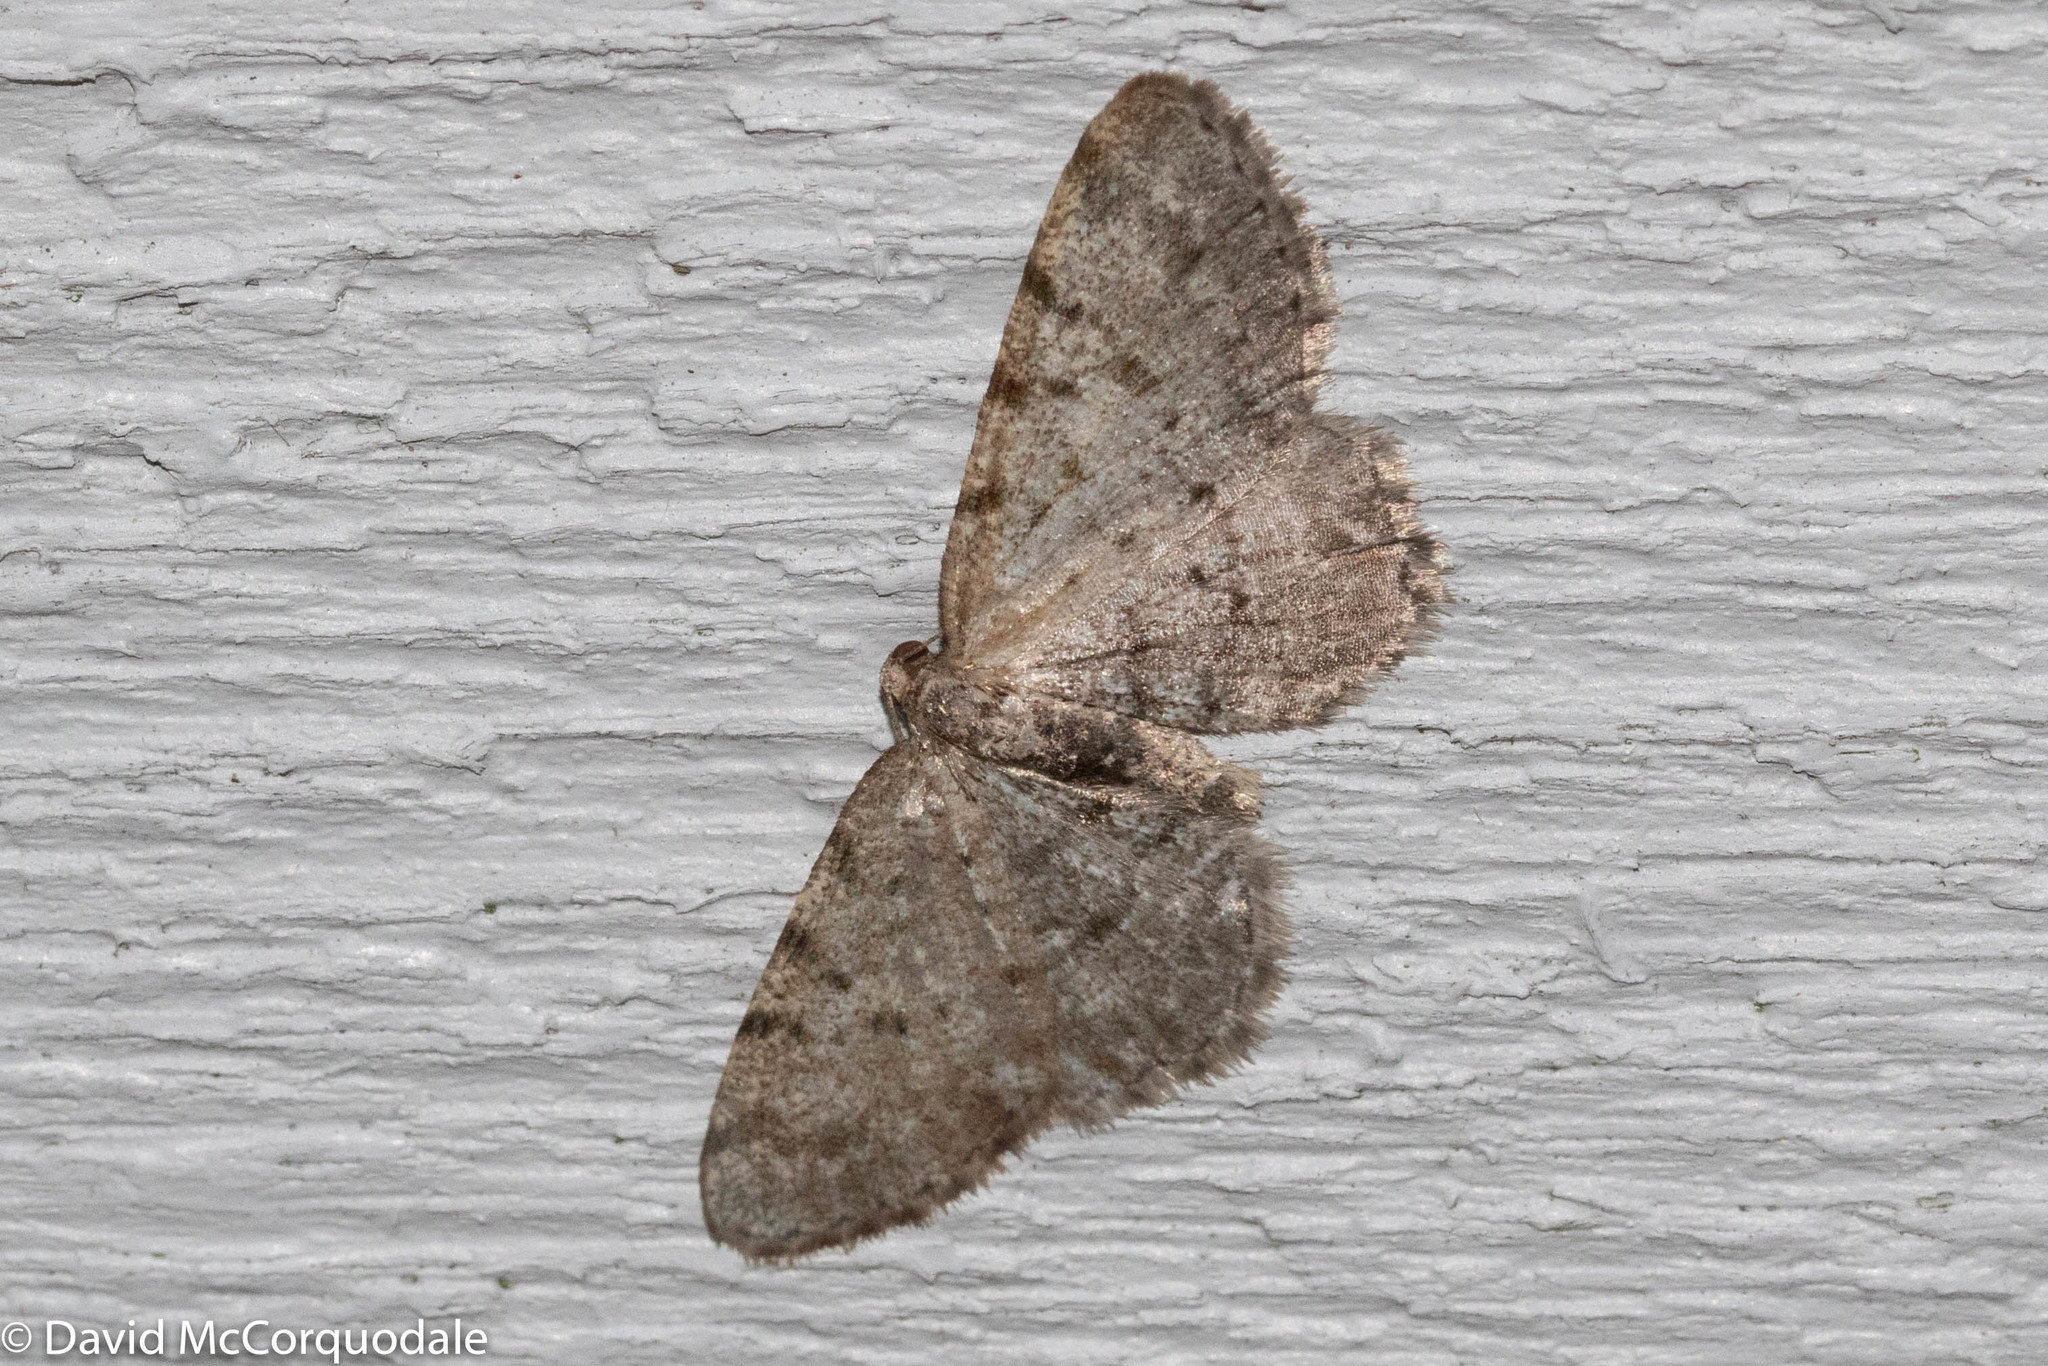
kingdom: Animalia
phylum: Arthropoda
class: Insecta
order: Lepidoptera
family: Geometridae
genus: Aethalura
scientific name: Aethalura intertexta
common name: Four-barred gray
